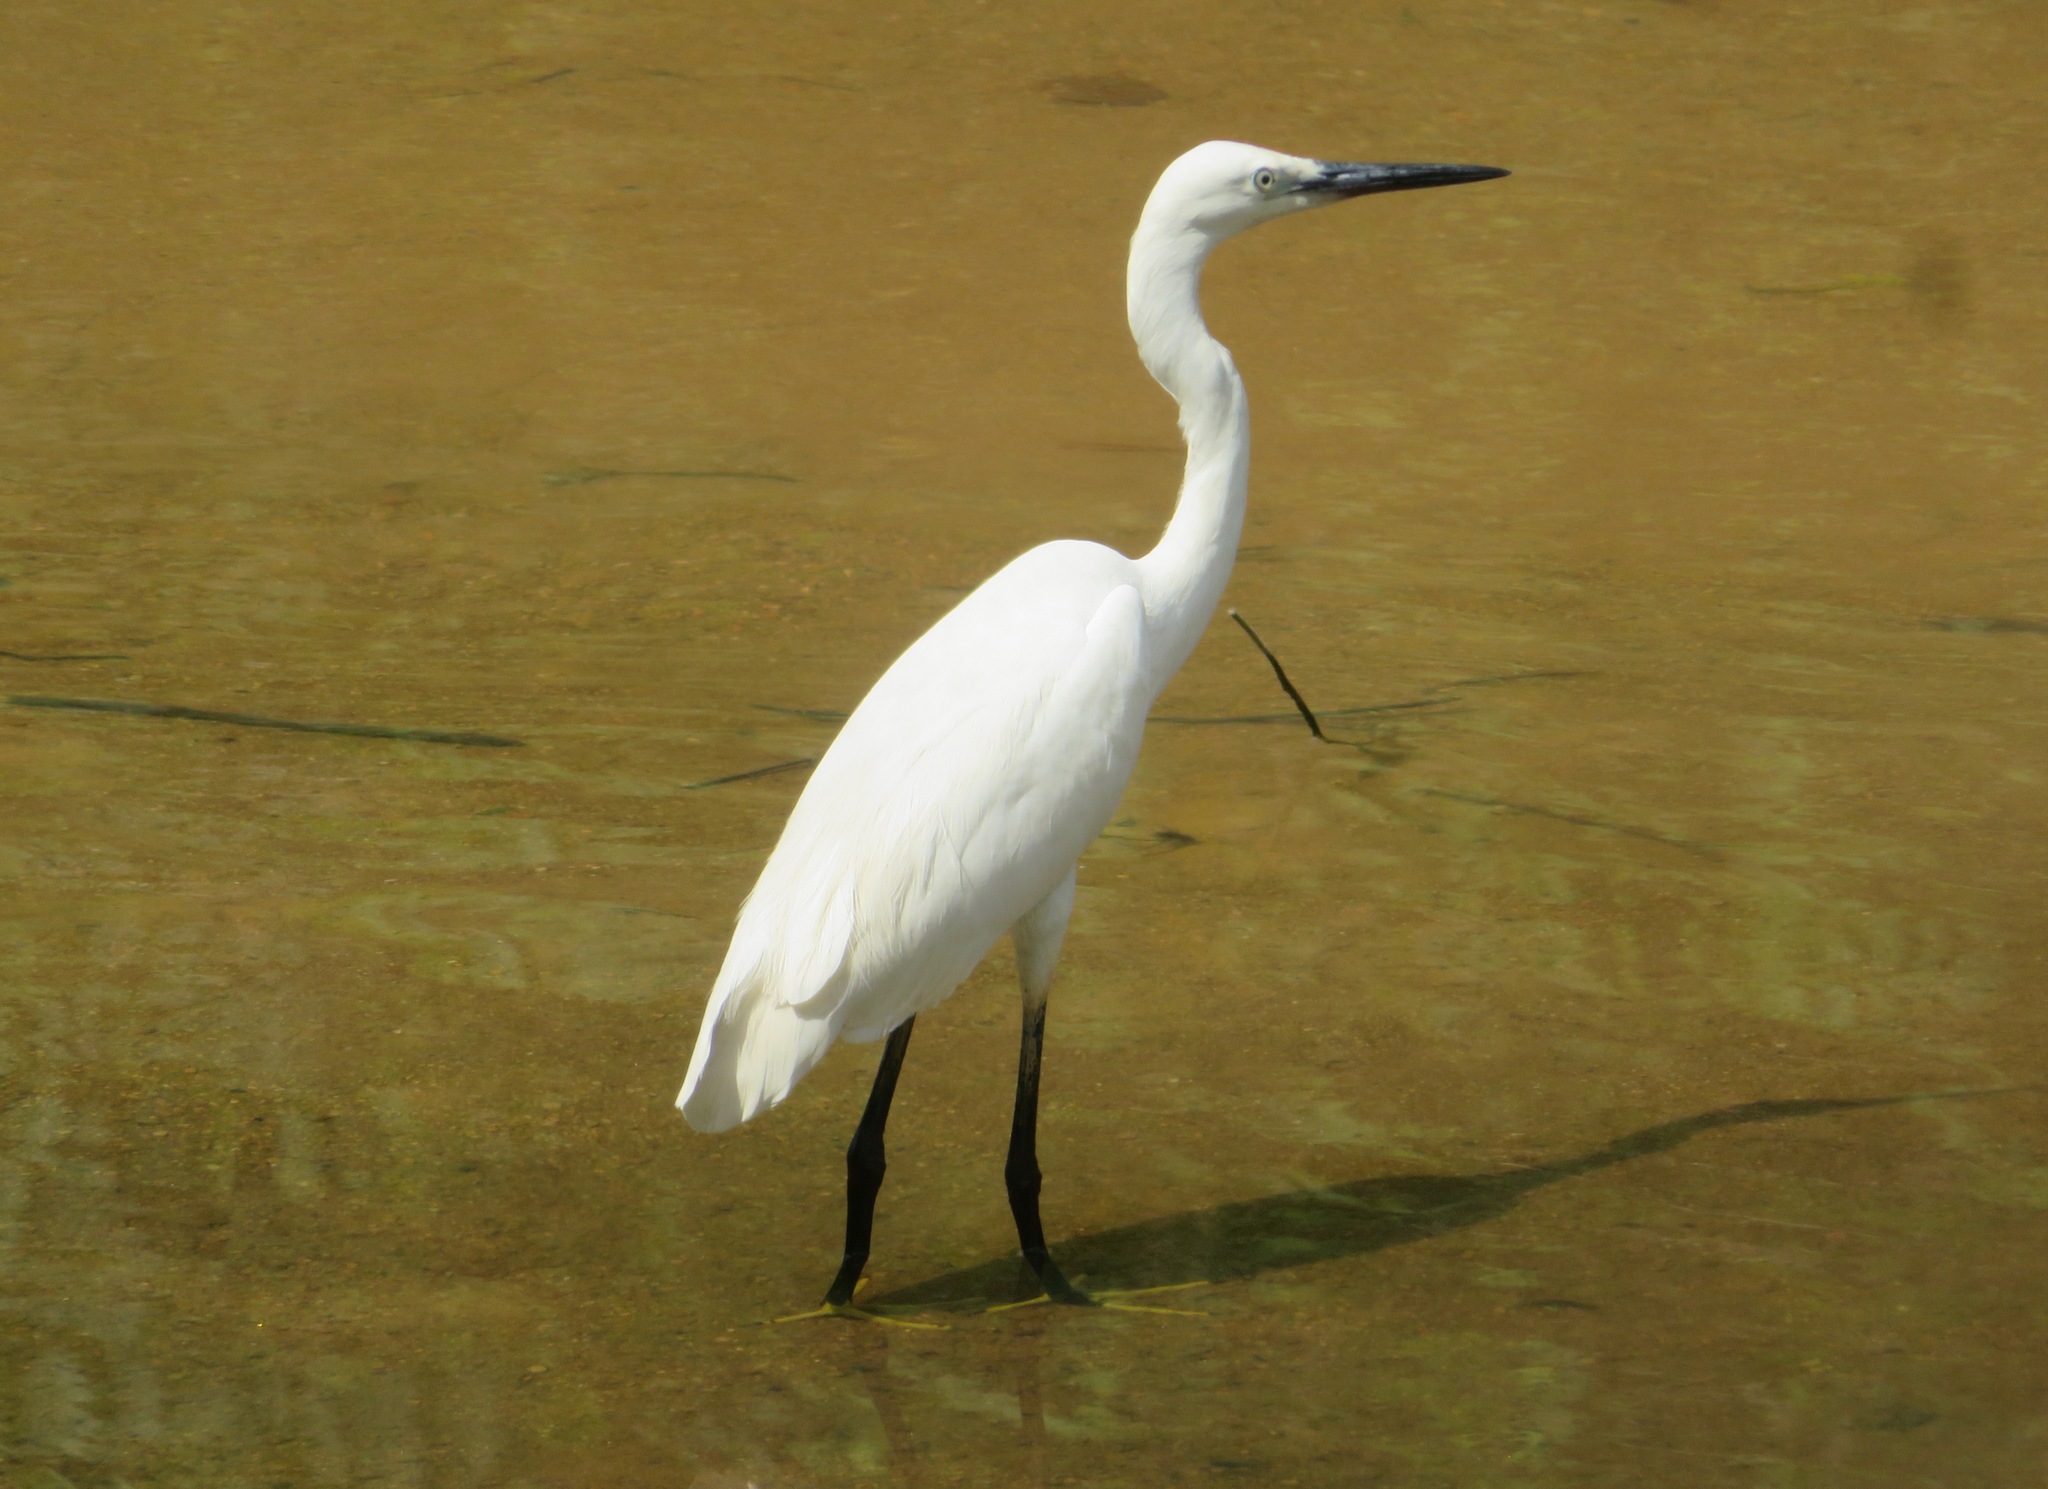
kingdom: Animalia
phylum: Chordata
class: Aves
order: Pelecaniformes
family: Ardeidae
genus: Egretta
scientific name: Egretta garzetta
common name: Little egret
